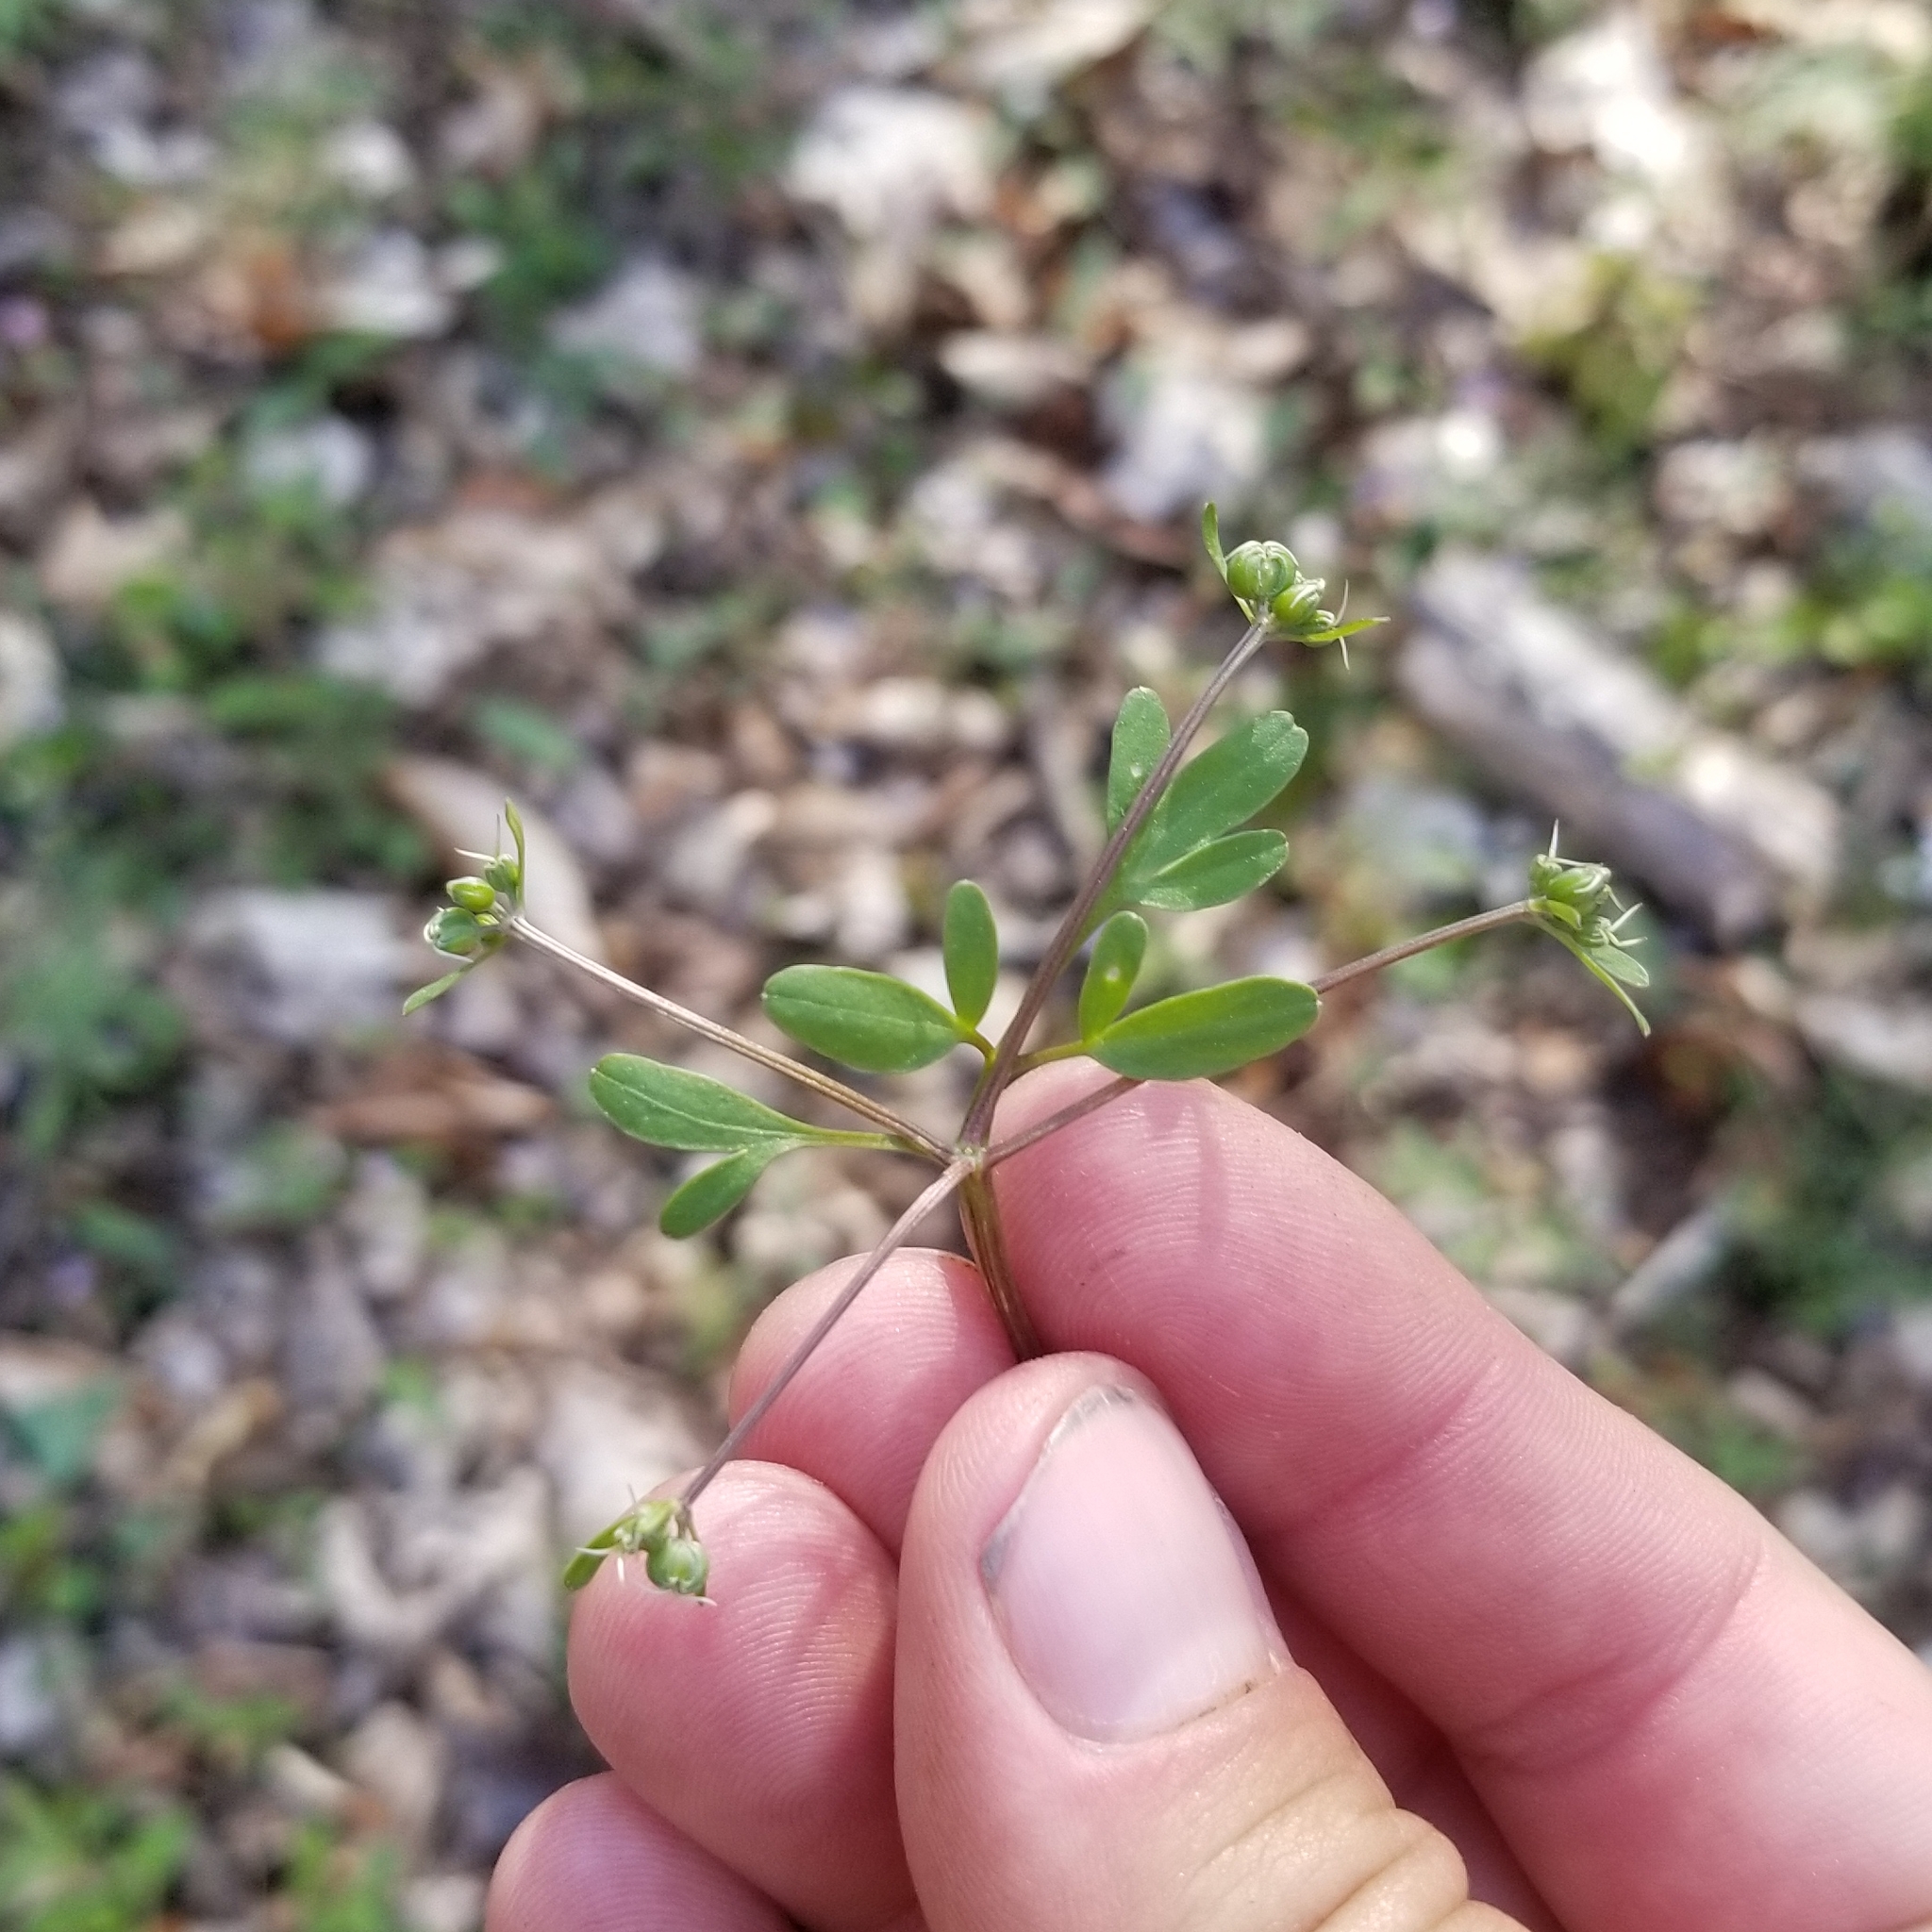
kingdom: Plantae
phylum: Tracheophyta
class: Magnoliopsida
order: Apiales
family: Apiaceae
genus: Erigenia
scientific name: Erigenia bulbosa
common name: Pepper-and-salt
